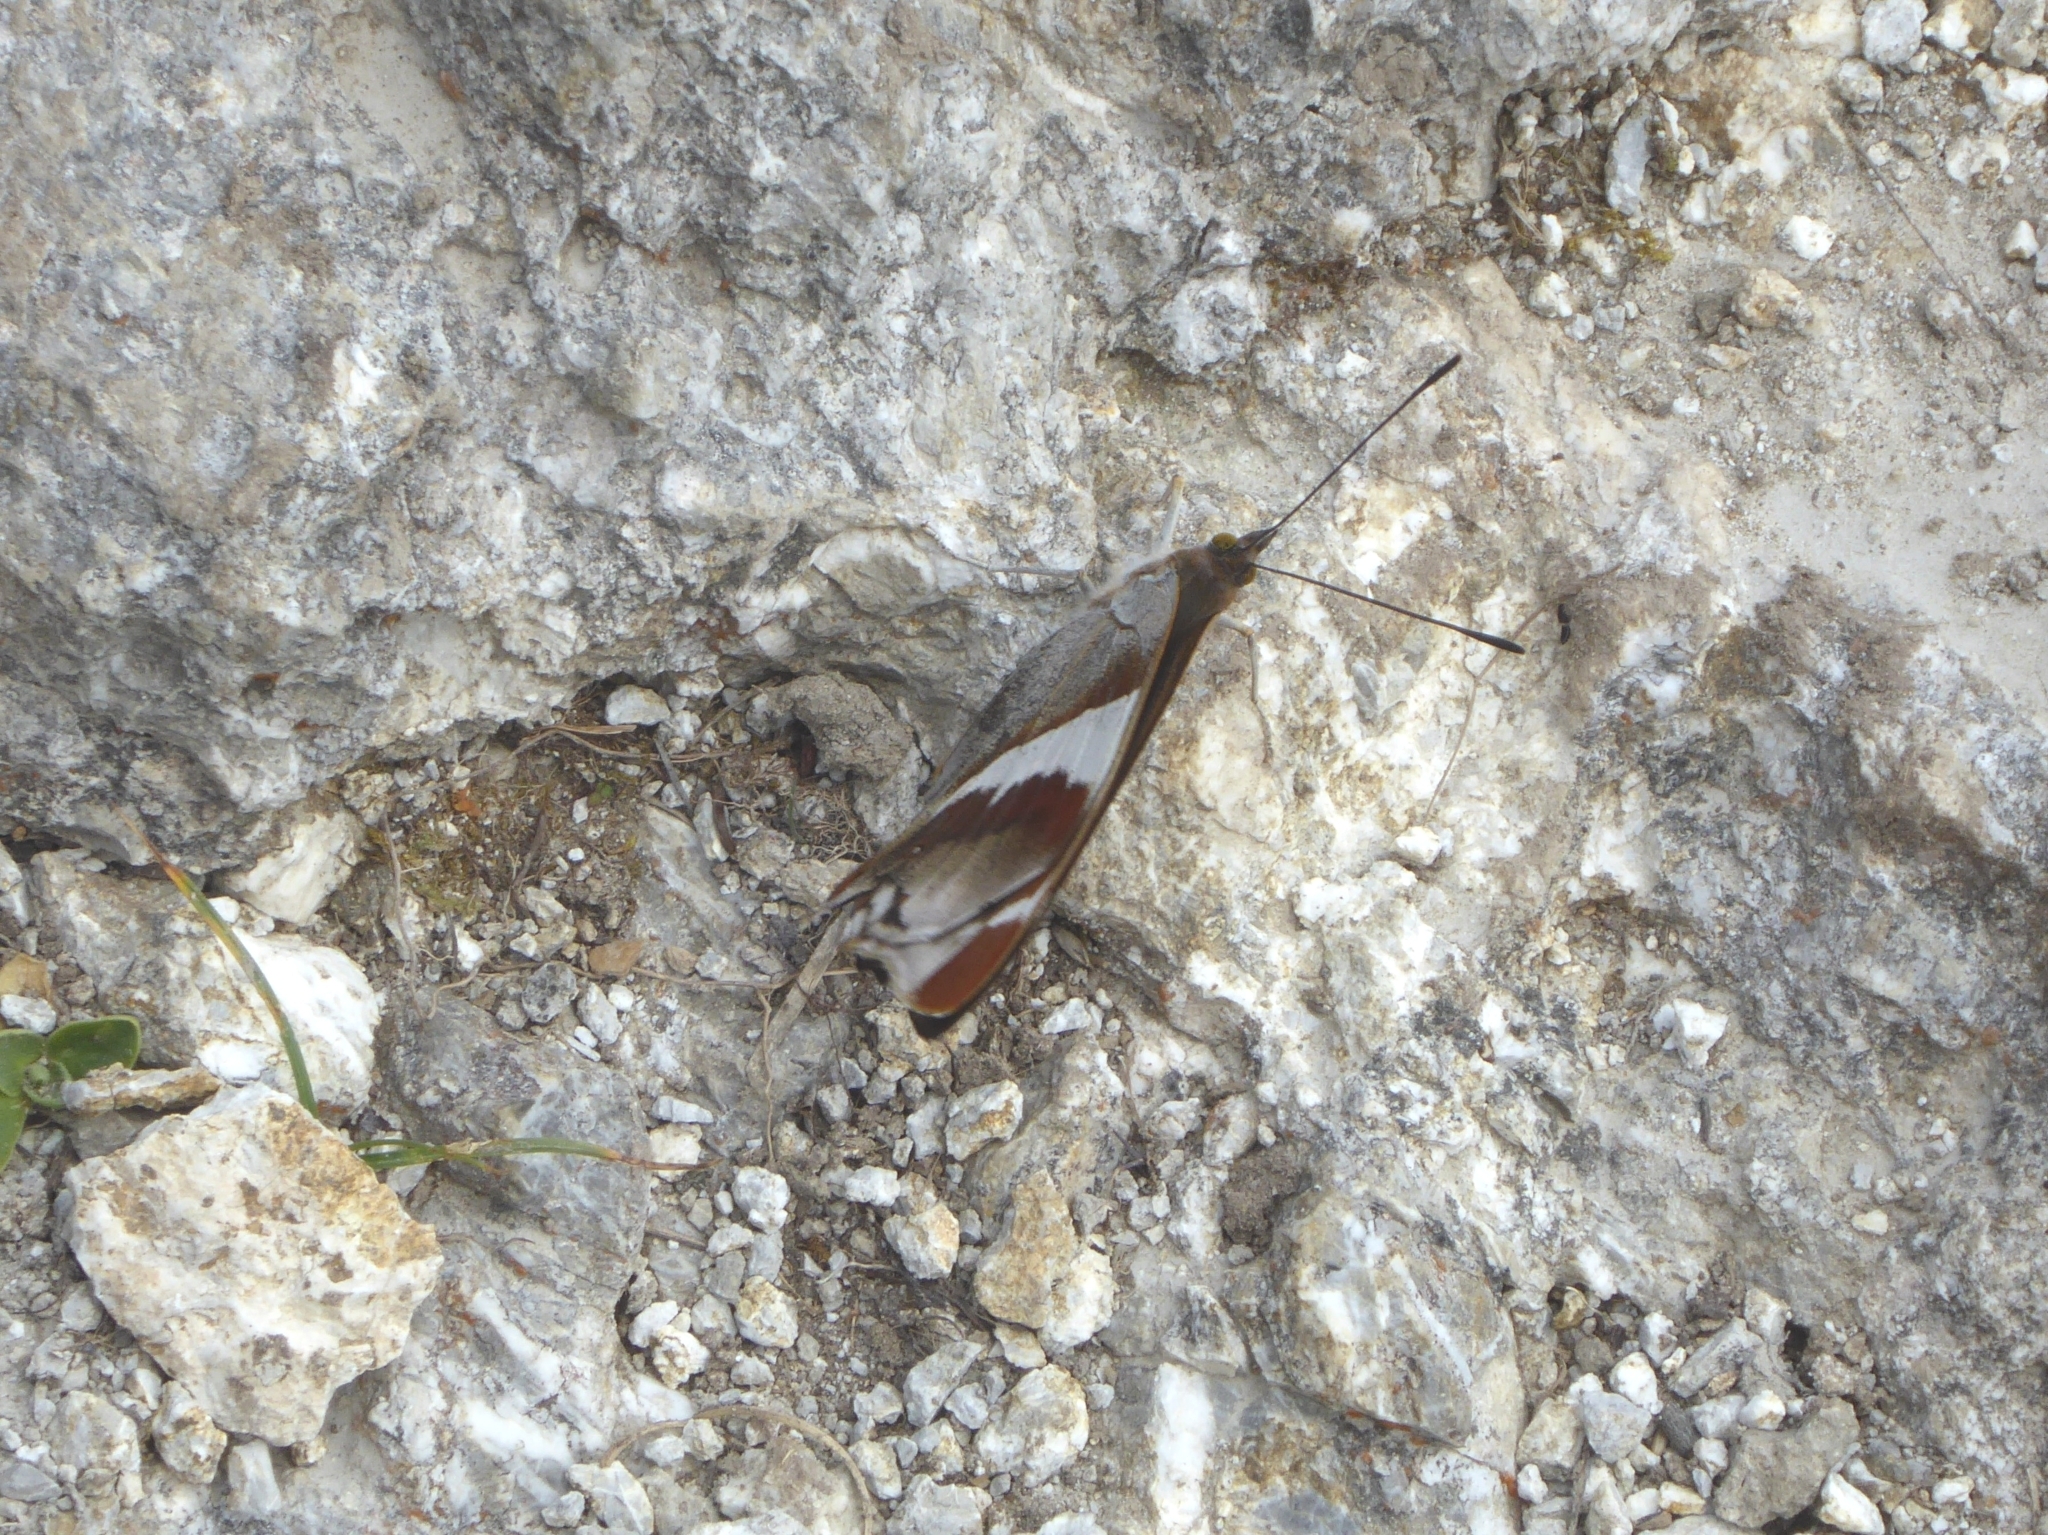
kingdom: Animalia
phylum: Arthropoda
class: Insecta
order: Lepidoptera
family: Nymphalidae
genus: Apatura
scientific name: Apatura iris
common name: Purple emperor
